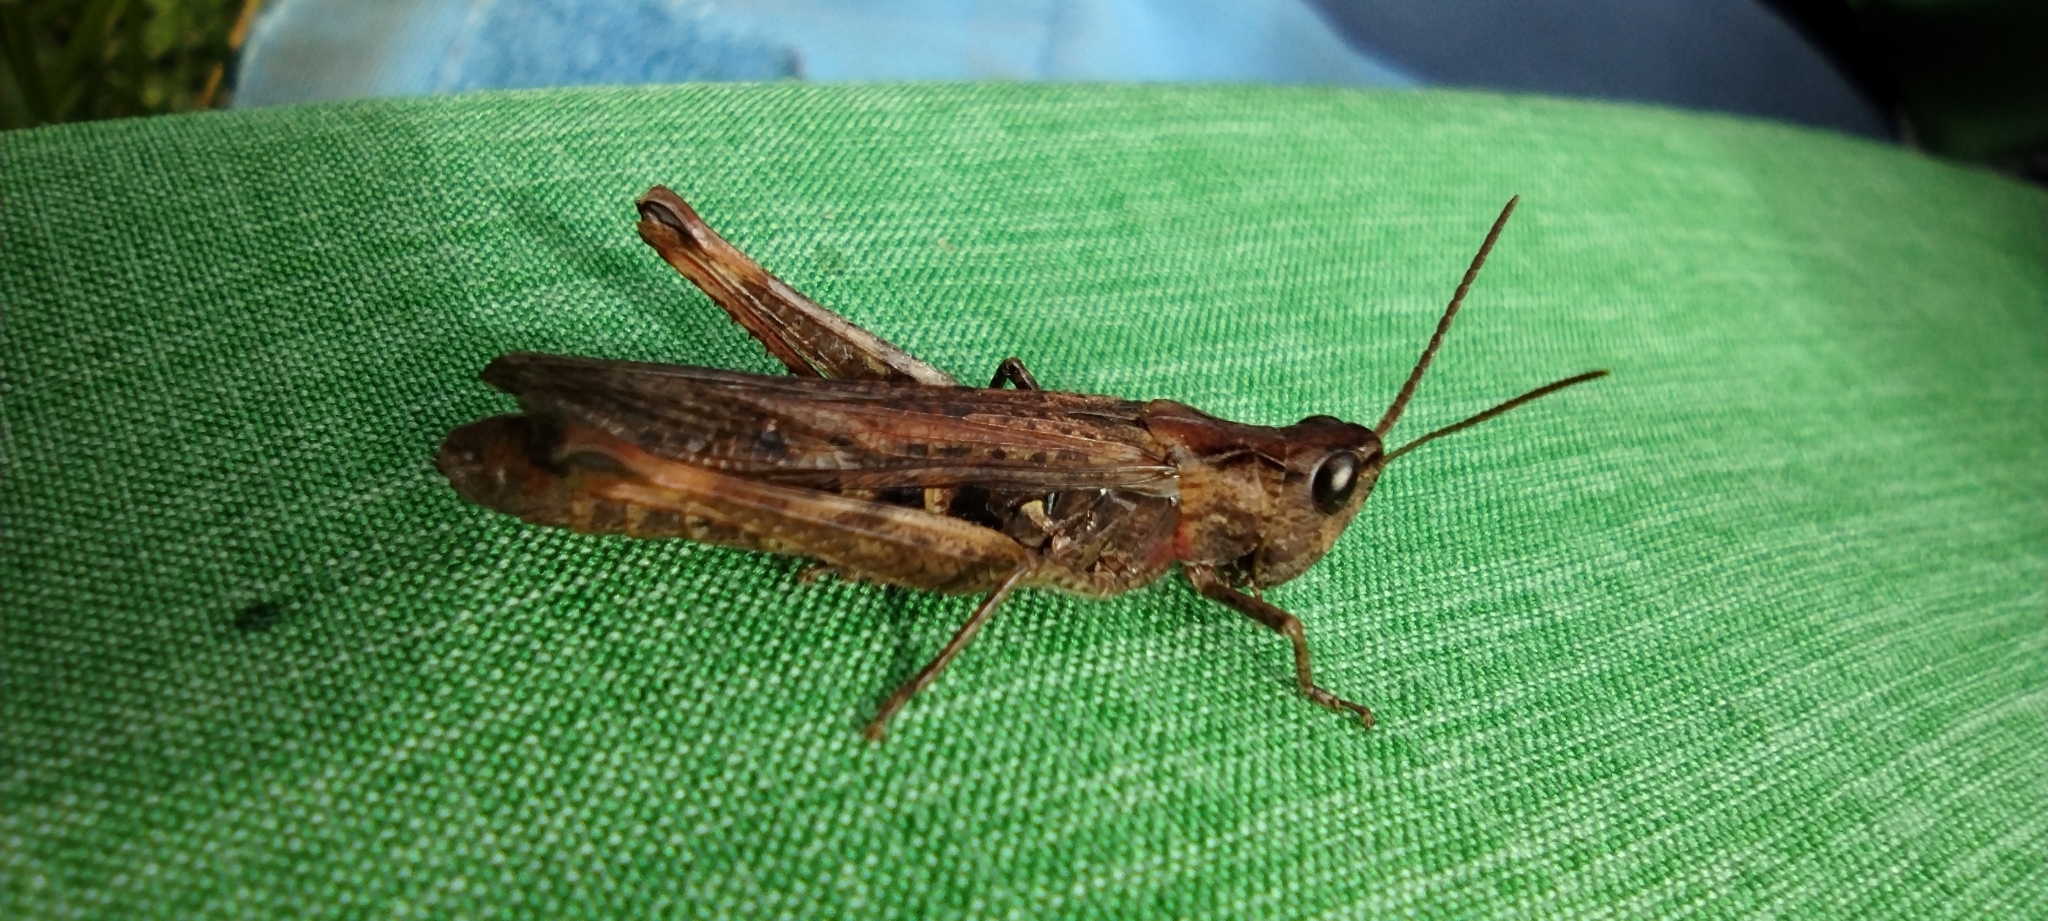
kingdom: Animalia
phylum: Arthropoda
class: Insecta
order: Orthoptera
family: Acrididae
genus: Chorthippus
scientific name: Chorthippus brunneus
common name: Field grasshopper
